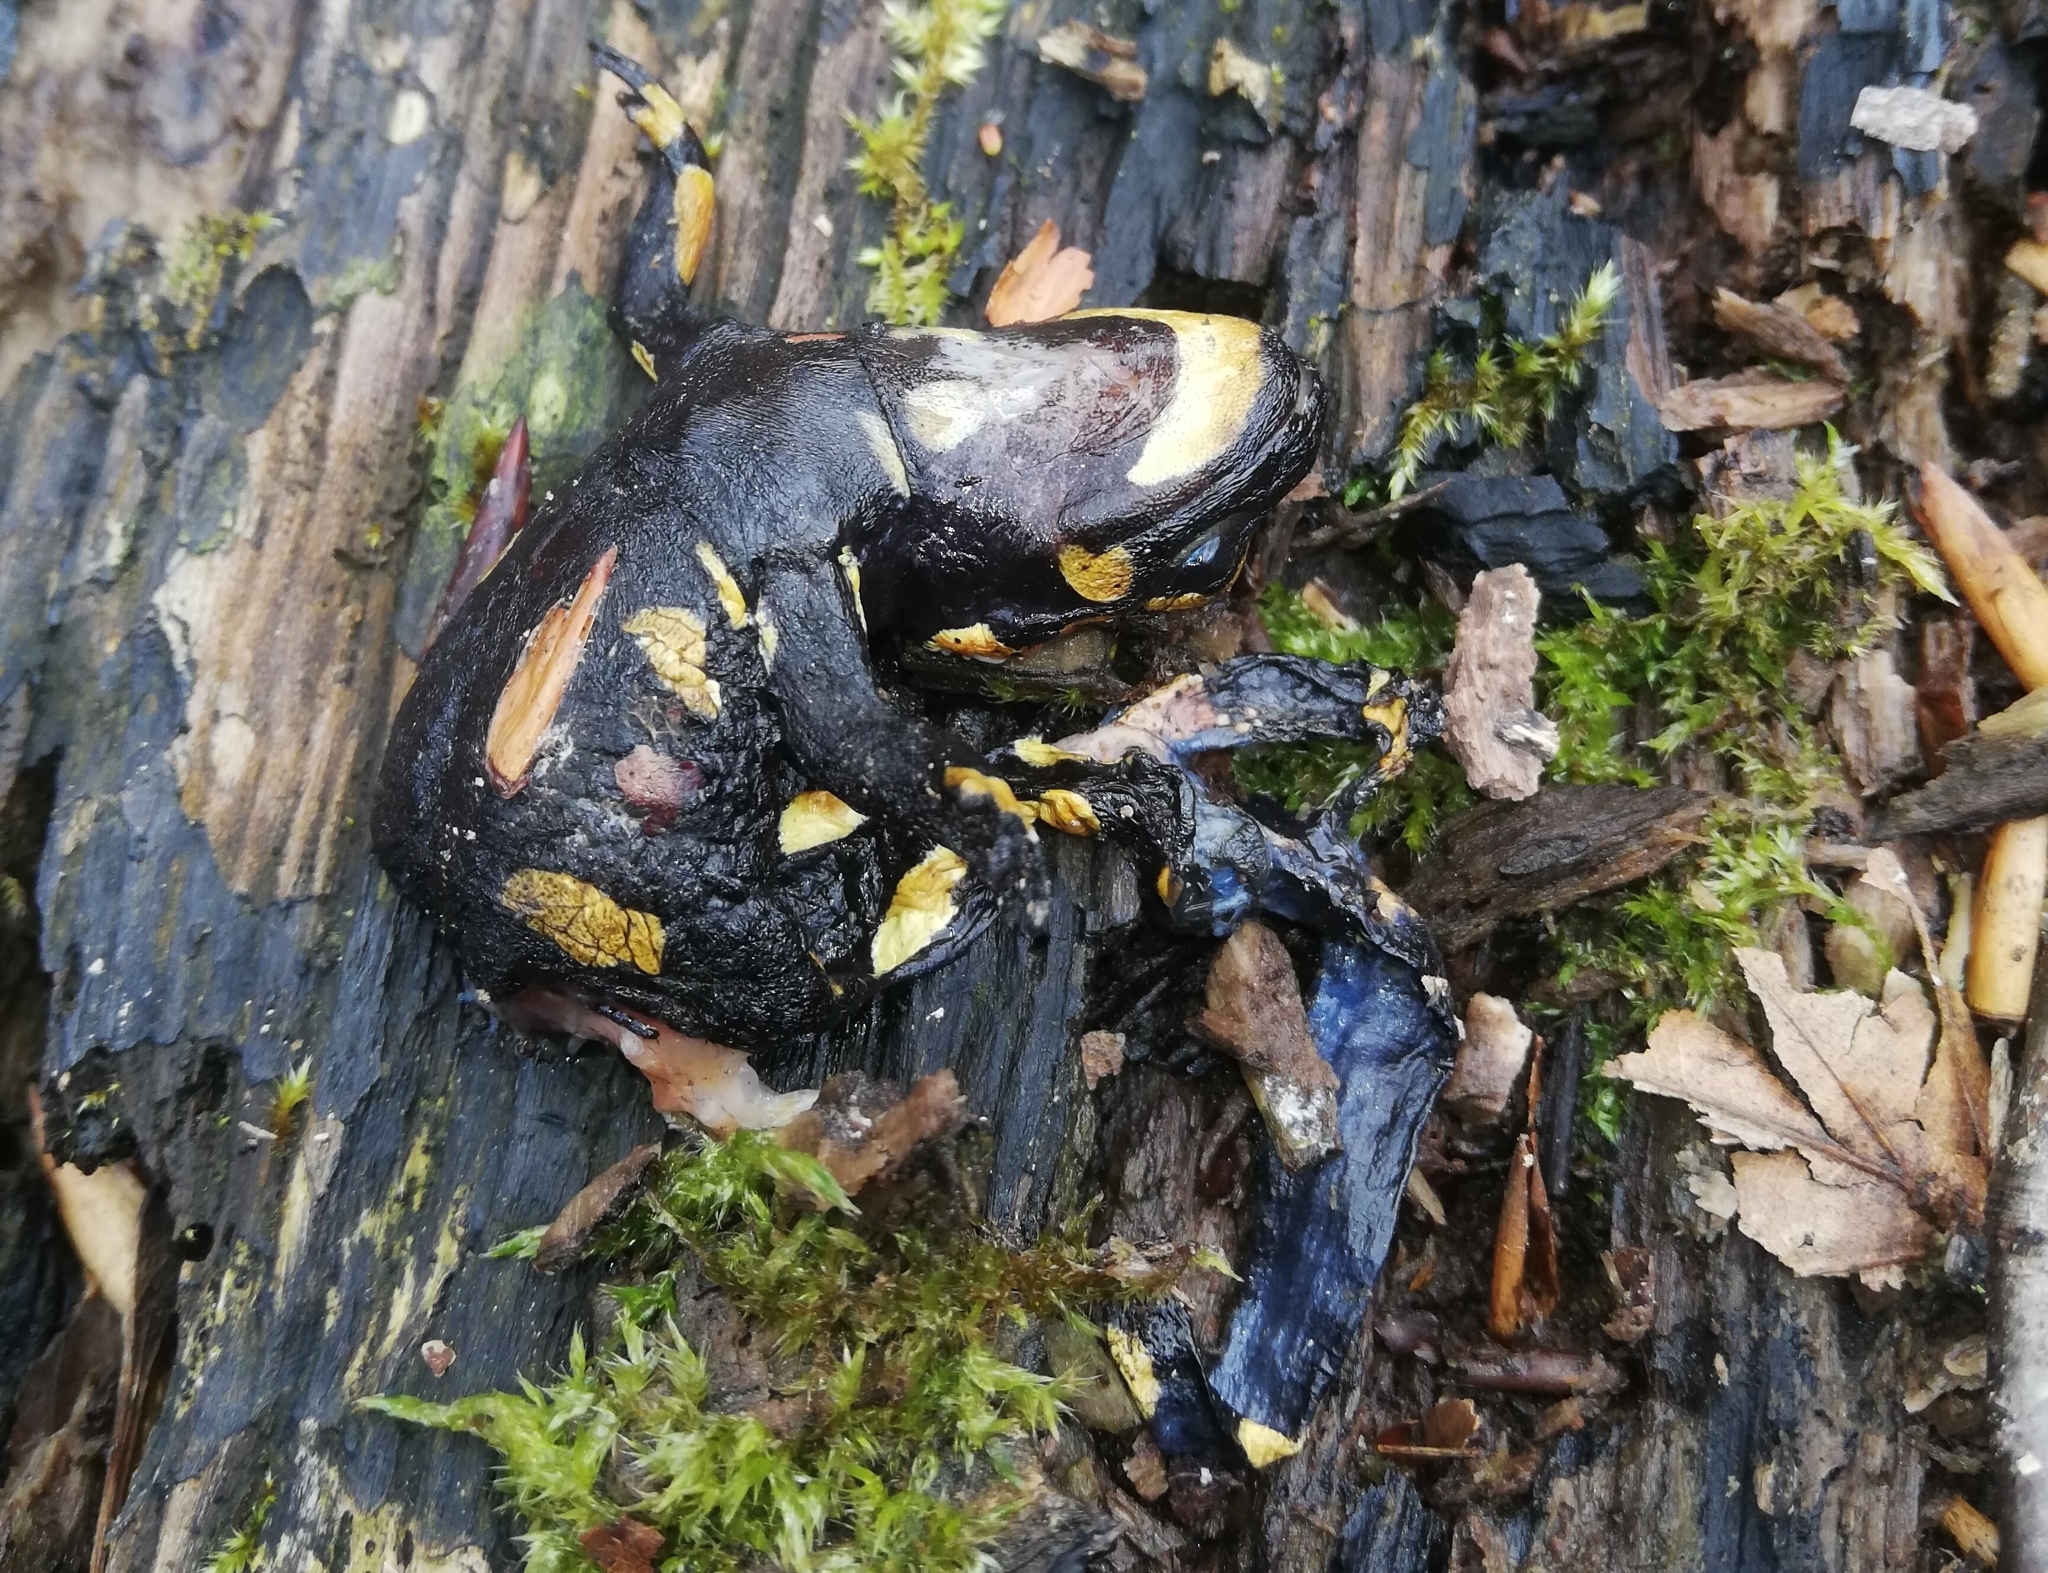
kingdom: Animalia
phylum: Chordata
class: Amphibia
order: Caudata
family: Salamandridae
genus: Salamandra
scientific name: Salamandra salamandra
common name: Fire salamander
